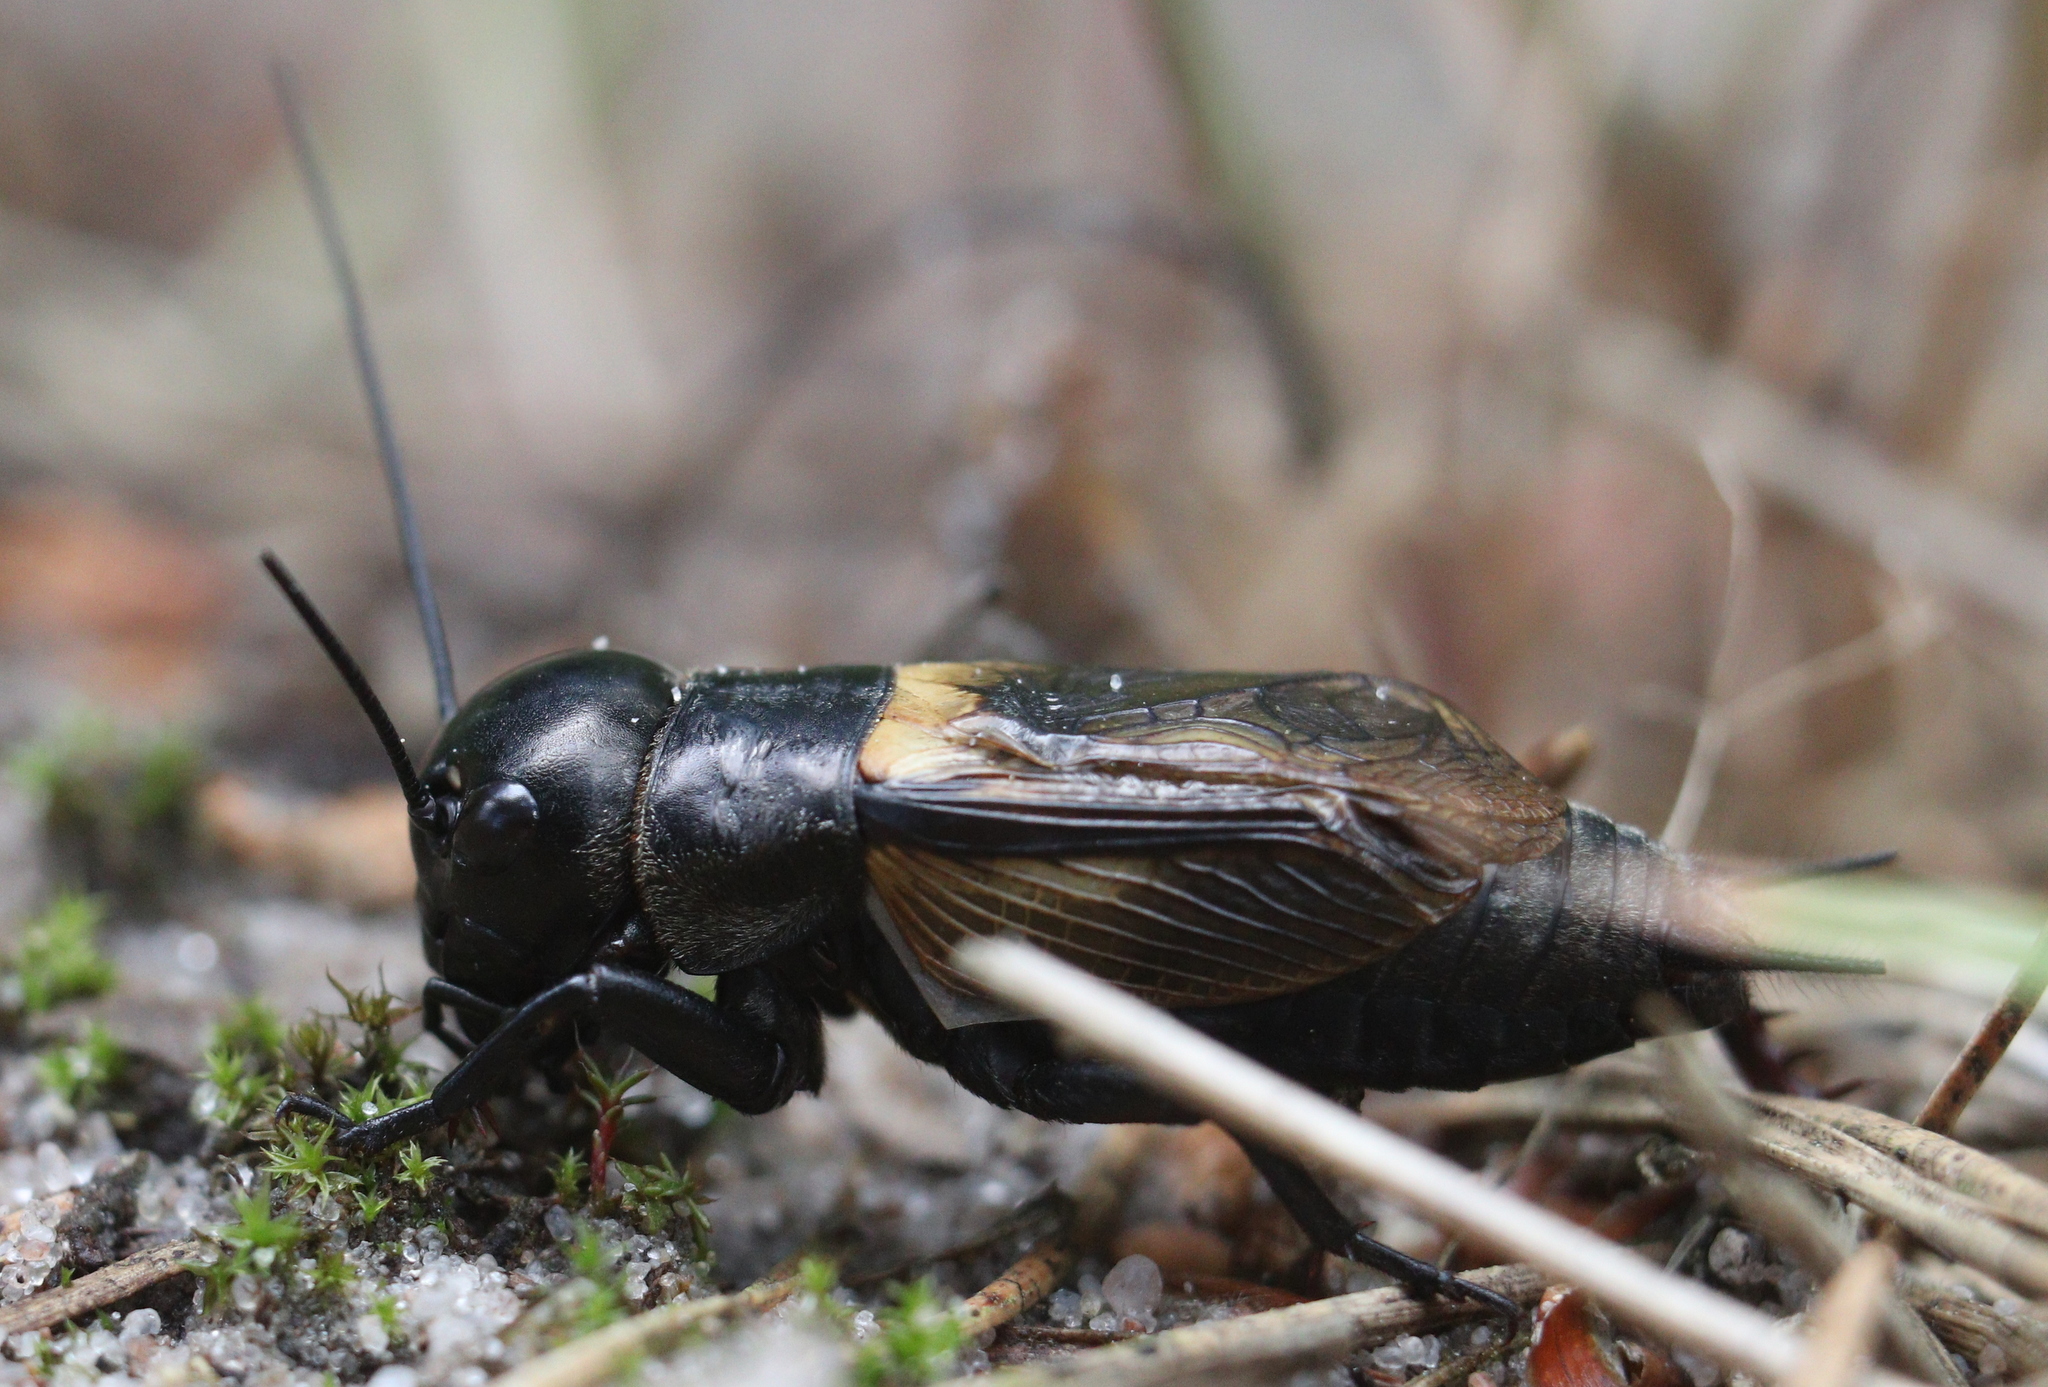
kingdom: Animalia
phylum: Arthropoda
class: Insecta
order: Orthoptera
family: Gryllidae
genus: Gryllus
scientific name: Gryllus campestris
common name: Field cricket
